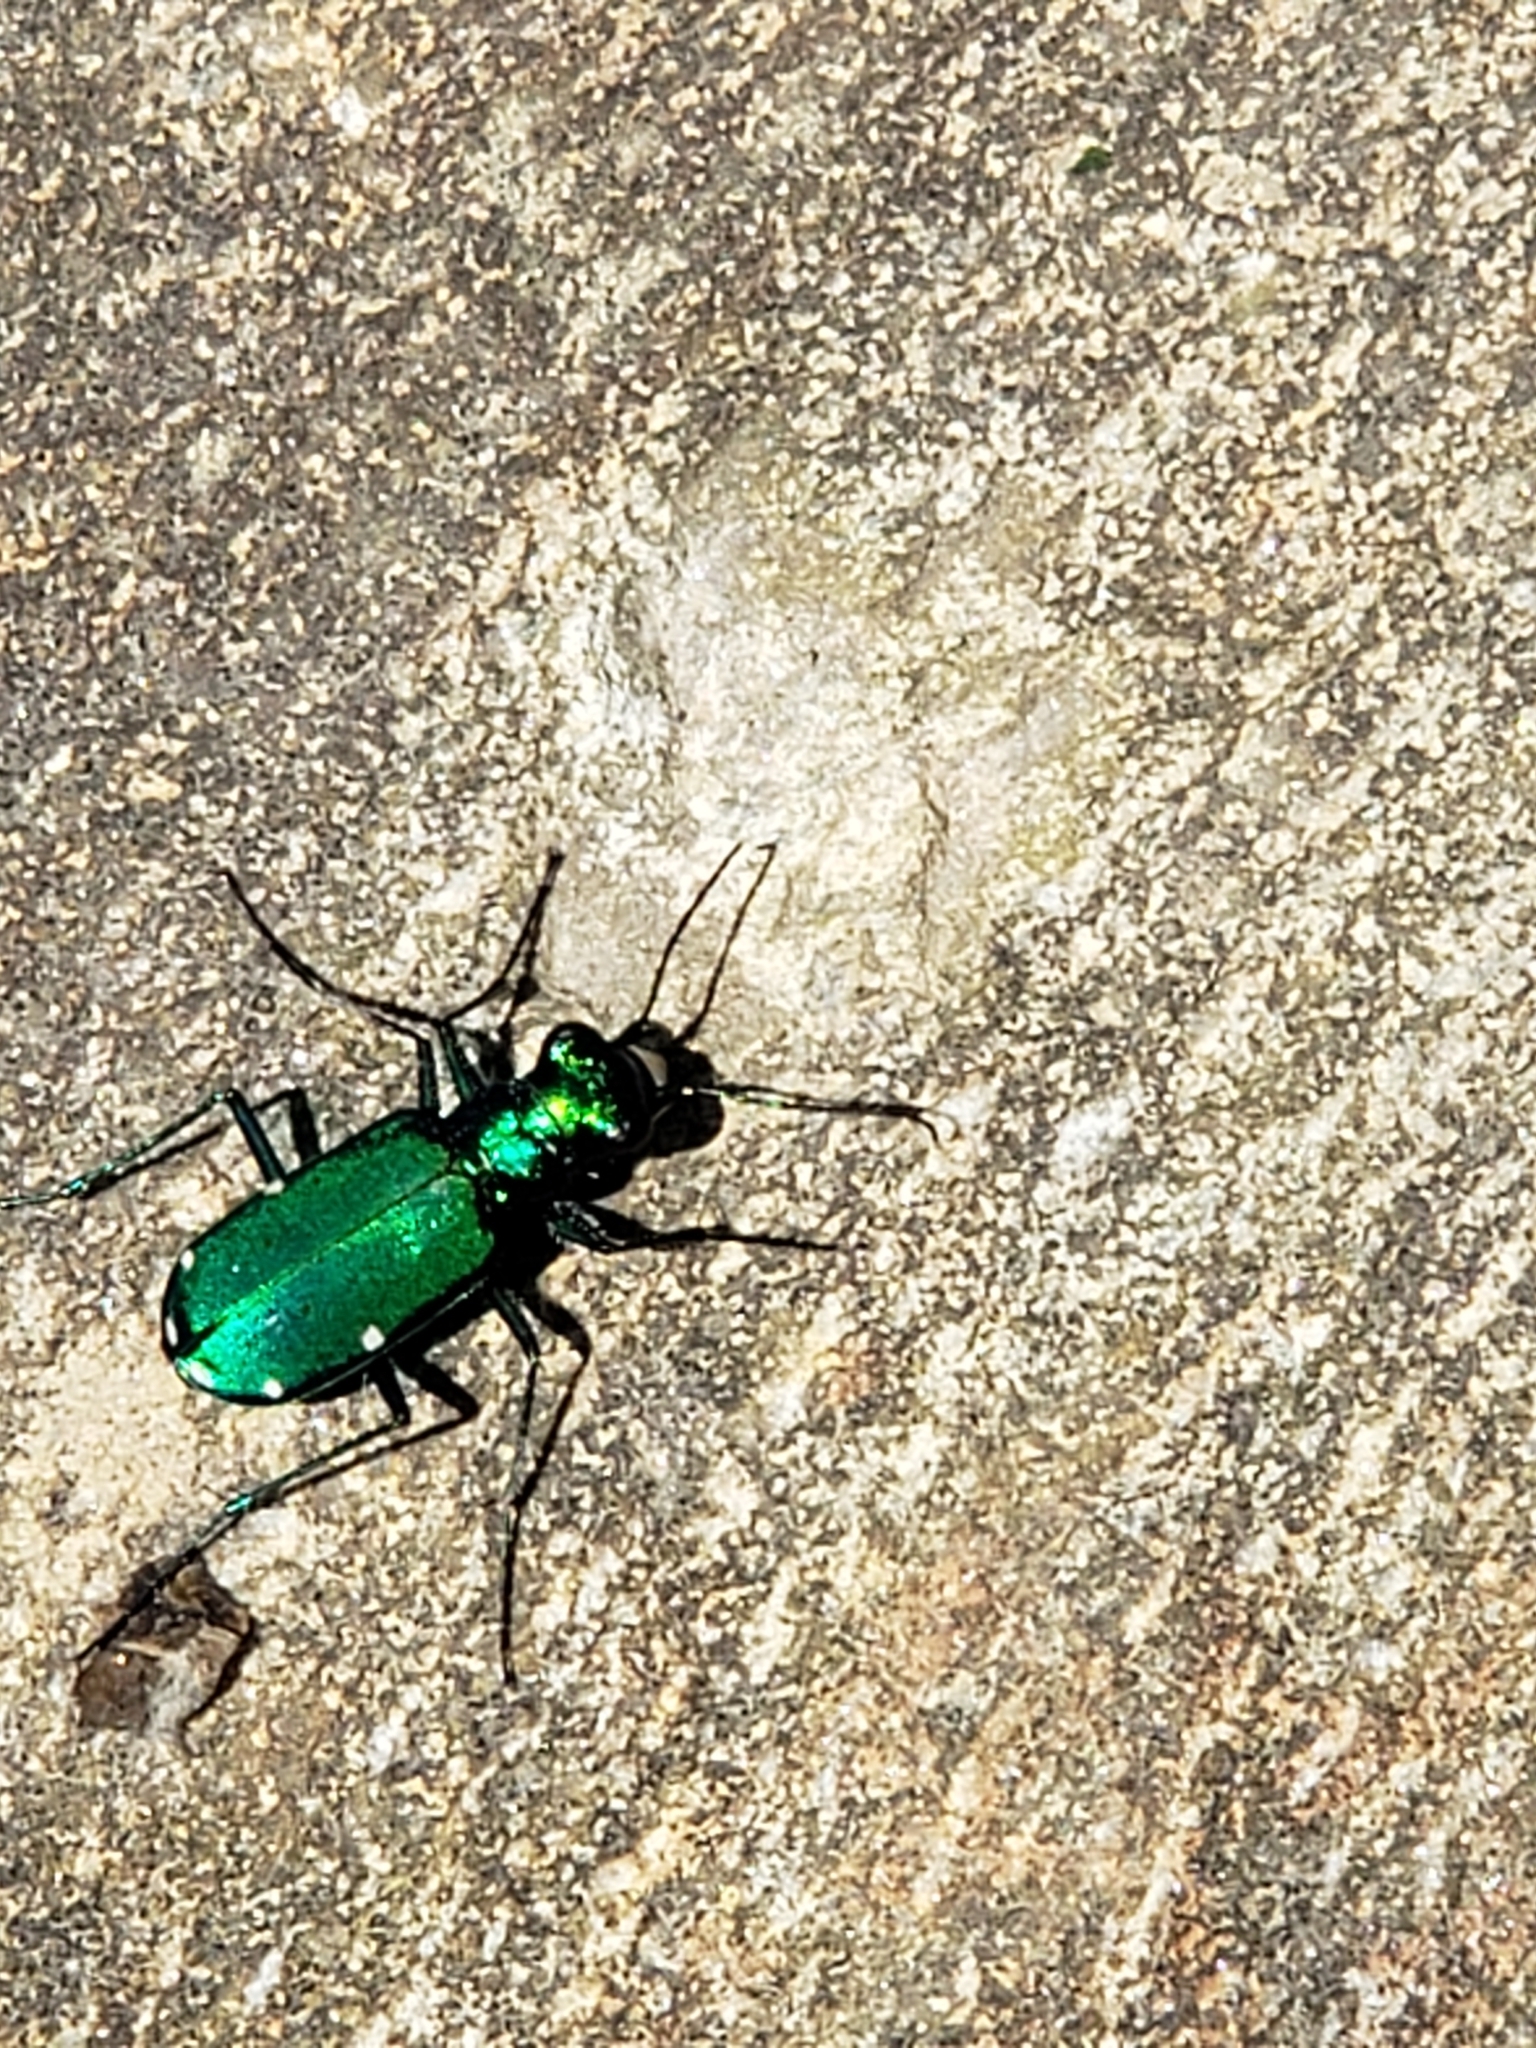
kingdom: Animalia
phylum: Arthropoda
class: Insecta
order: Coleoptera
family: Carabidae
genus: Cicindela
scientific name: Cicindela sexguttata
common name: Six-spotted tiger beetle
